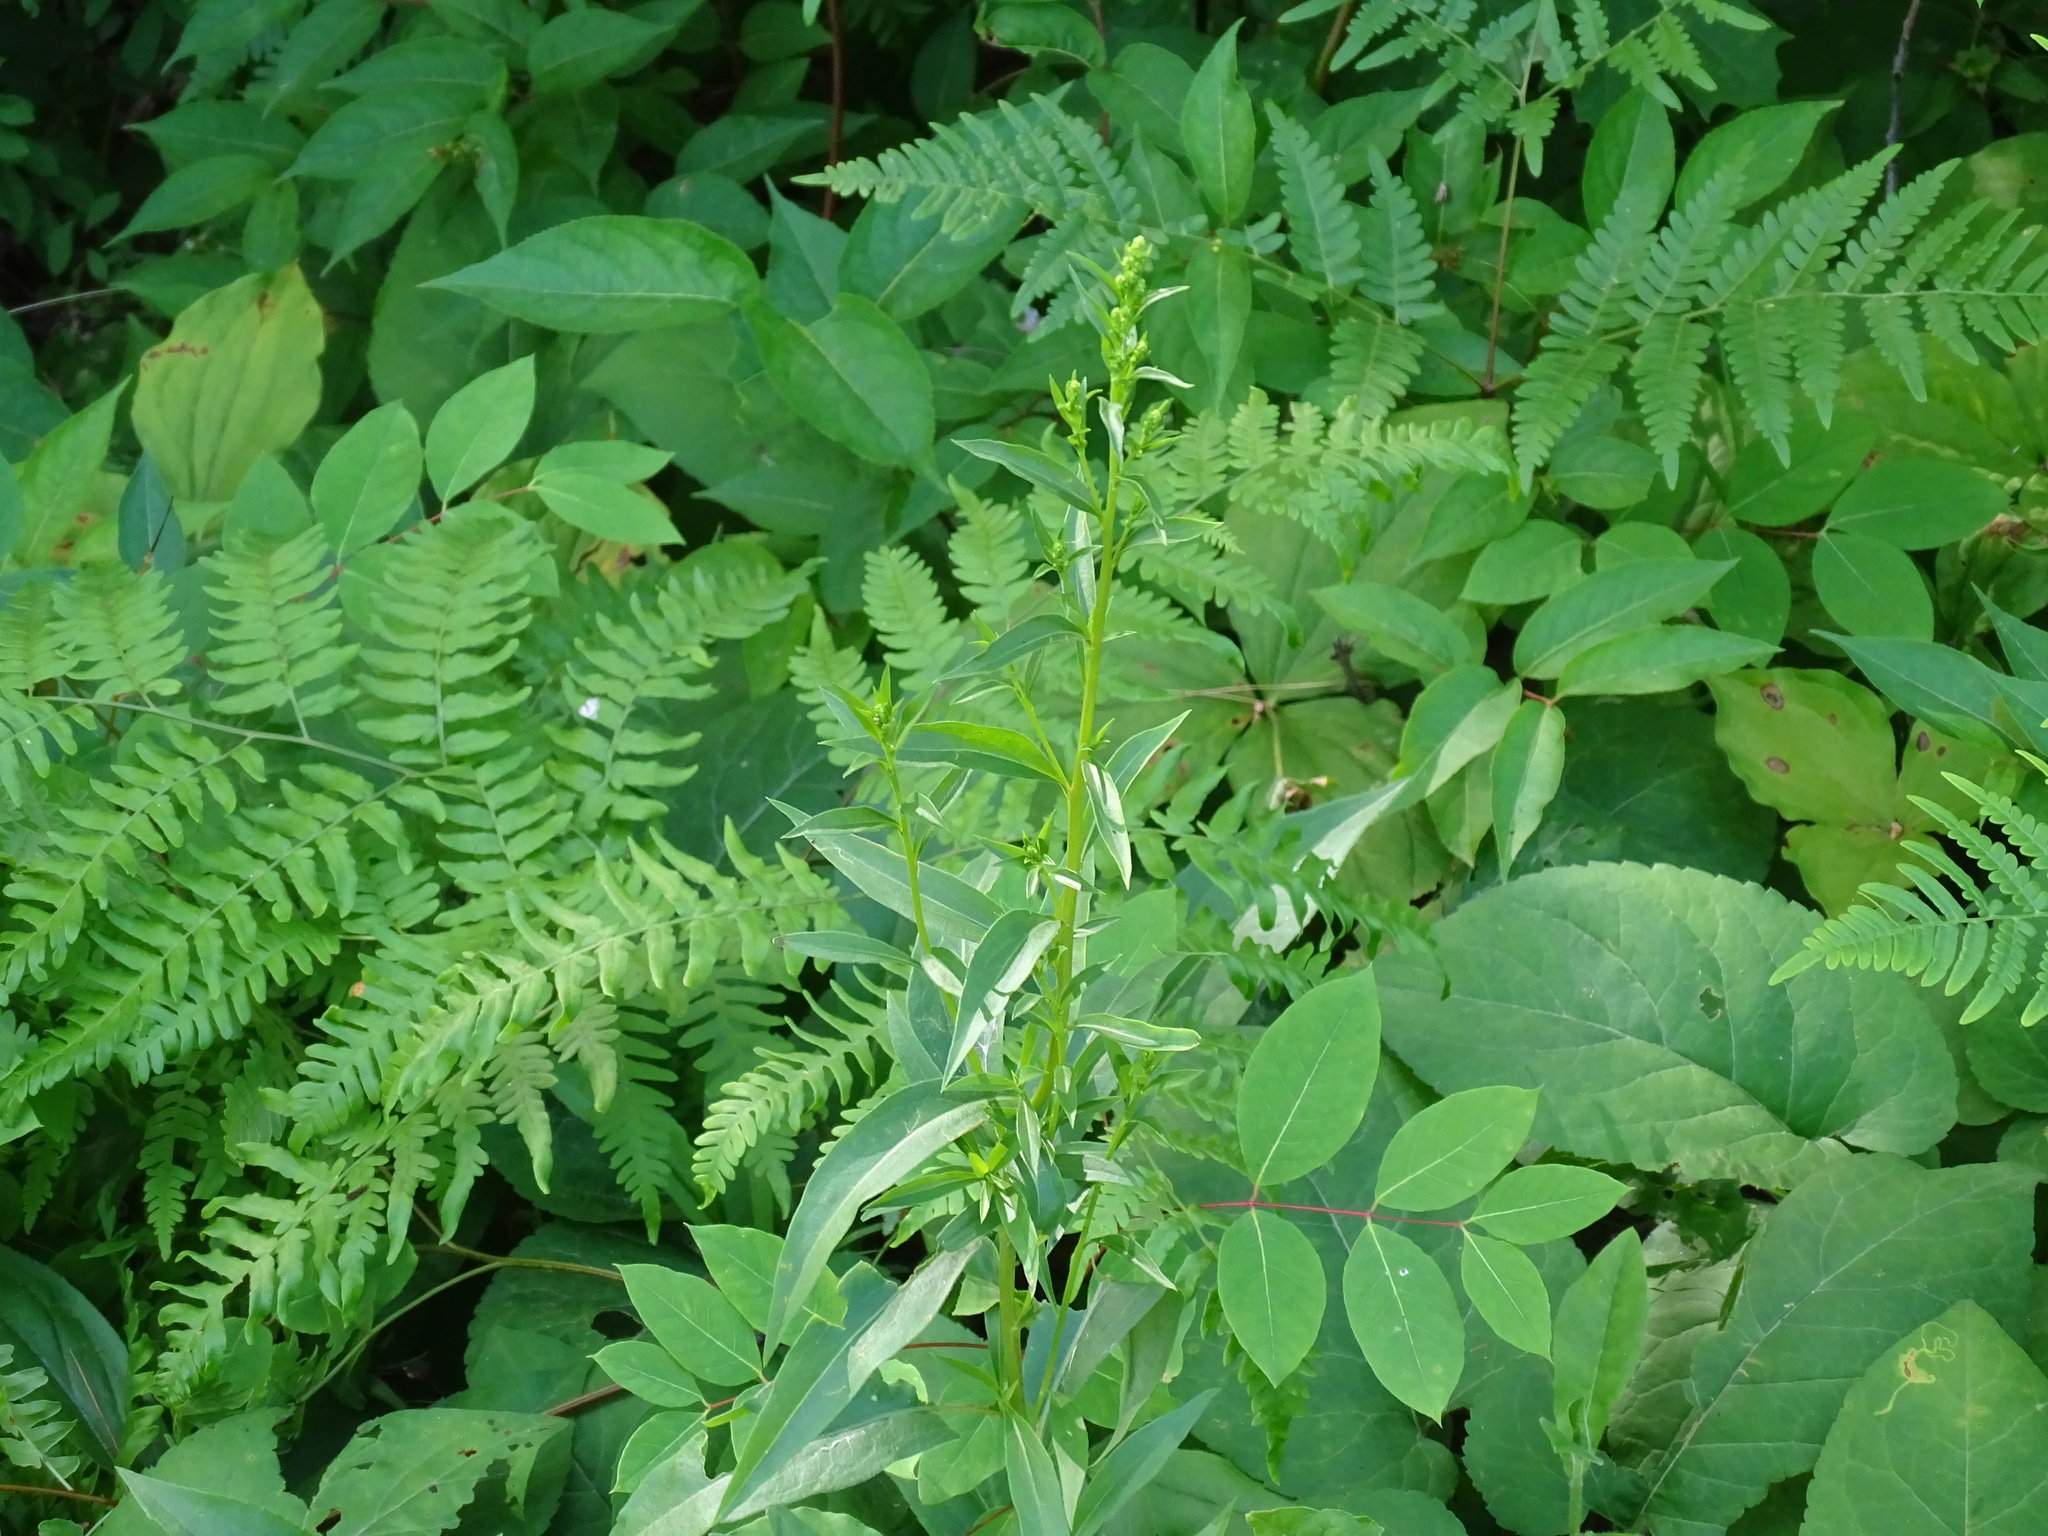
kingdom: Plantae
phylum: Tracheophyta
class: Magnoliopsida
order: Asterales
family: Asteraceae
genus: Solidago
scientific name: Solidago juncea
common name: Early goldenrod
